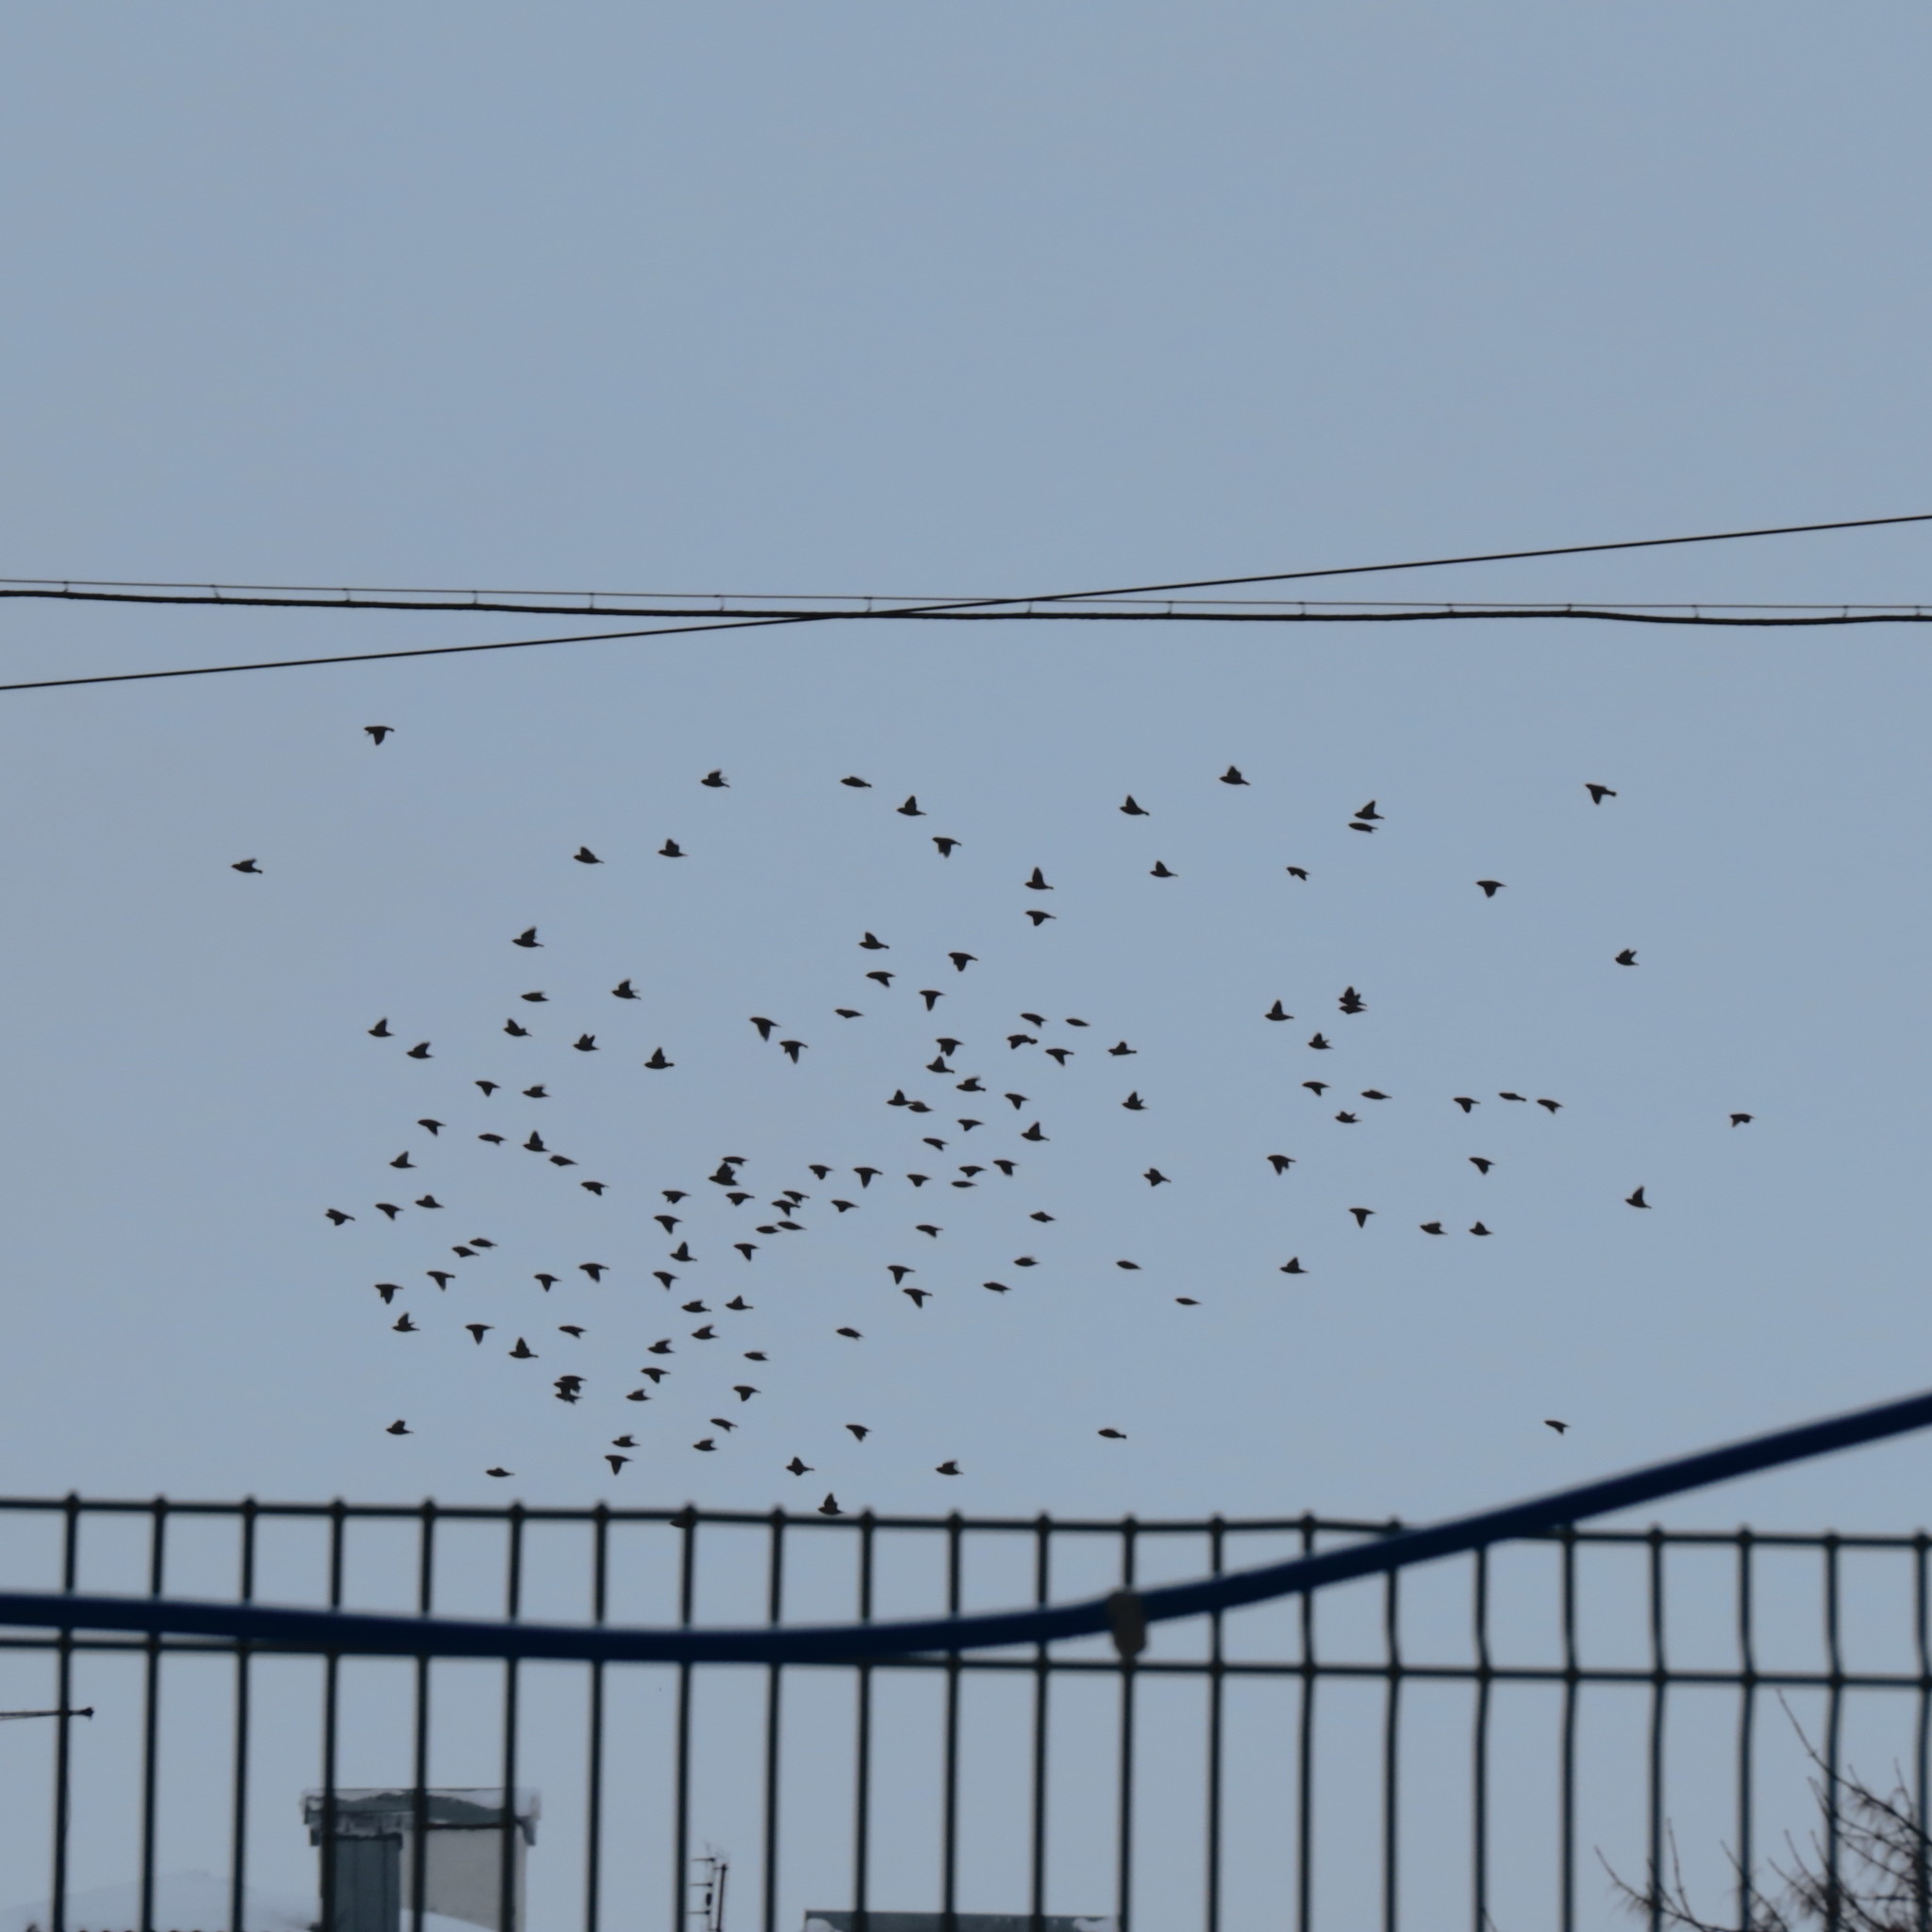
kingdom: Animalia
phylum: Chordata
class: Aves
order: Passeriformes
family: Bombycillidae
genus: Bombycilla
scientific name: Bombycilla garrulus
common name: Bohemian waxwing
